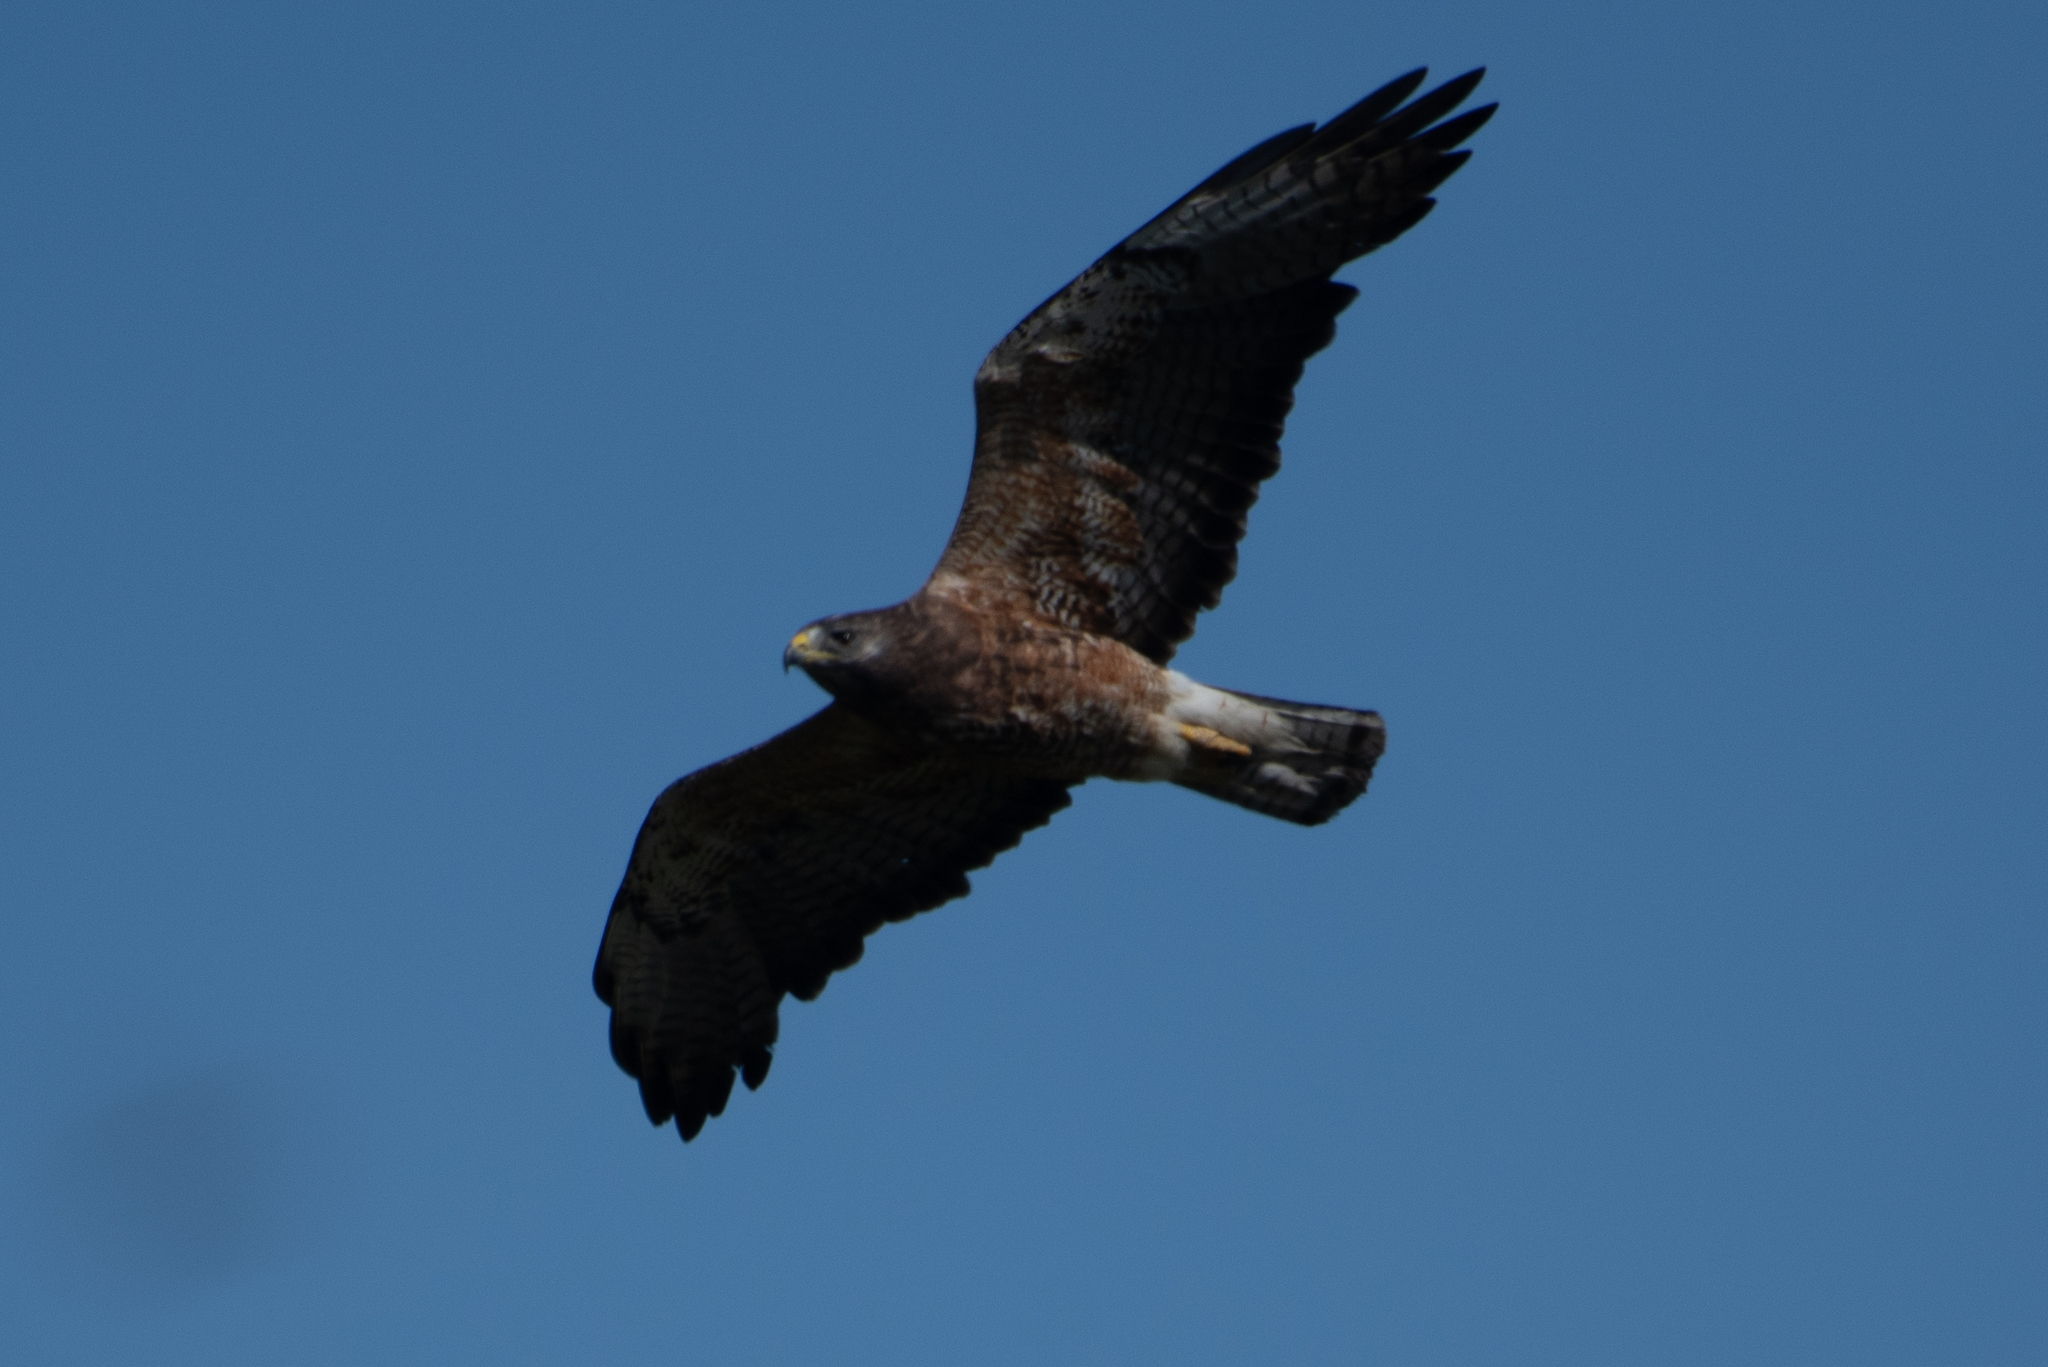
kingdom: Animalia
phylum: Chordata
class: Aves
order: Accipitriformes
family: Accipitridae
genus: Buteo
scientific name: Buteo swainsoni
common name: Swainson's hawk
